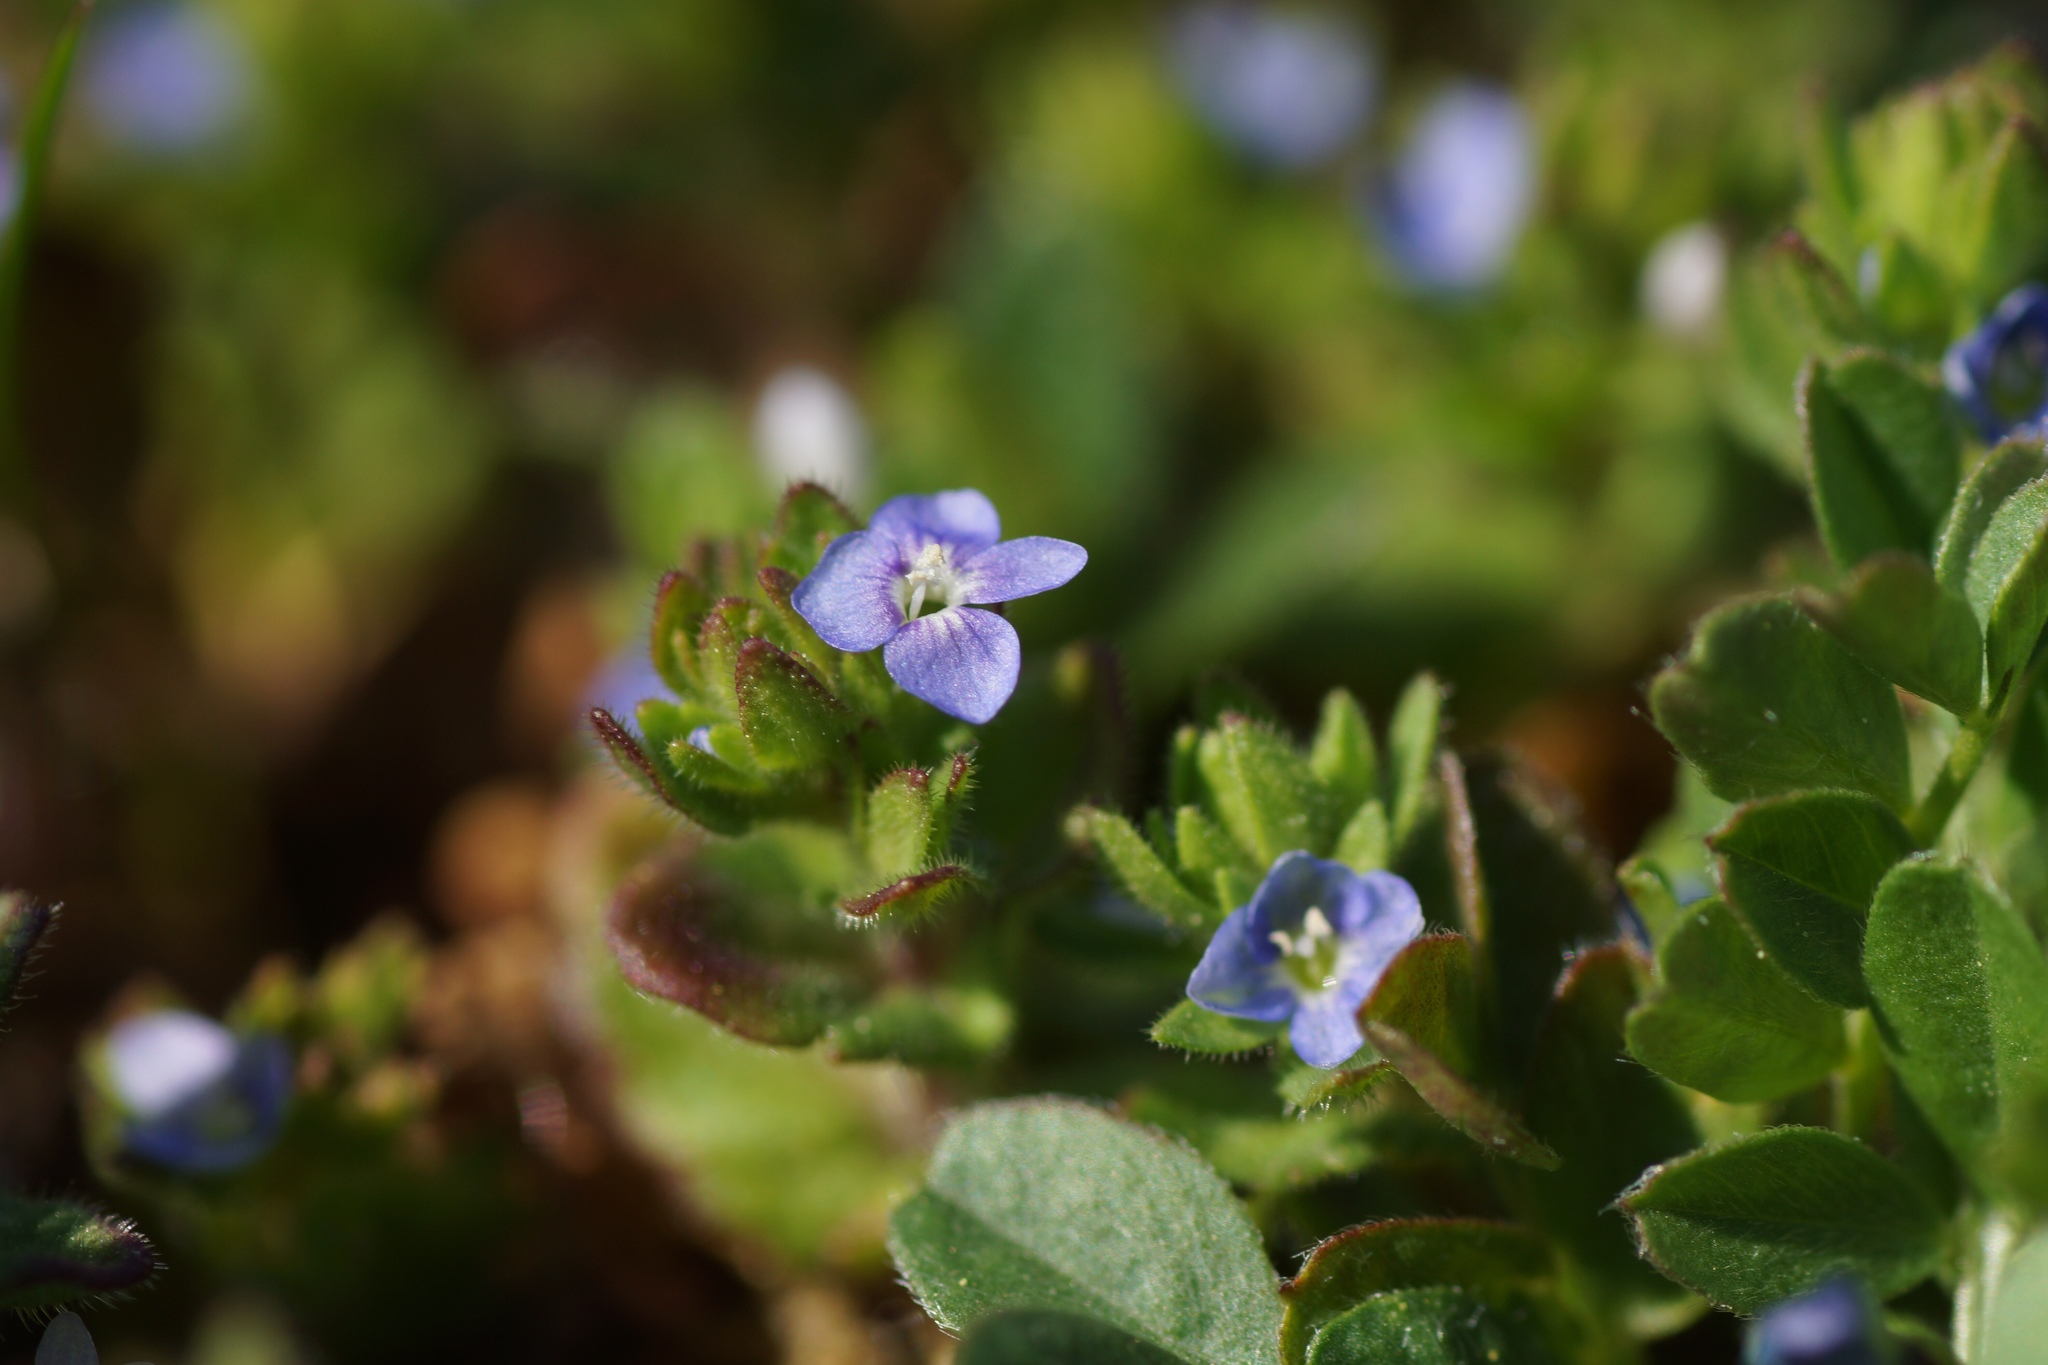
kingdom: Plantae
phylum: Tracheophyta
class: Magnoliopsida
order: Lamiales
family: Plantaginaceae
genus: Veronica
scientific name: Veronica arvensis
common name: Corn speedwell
